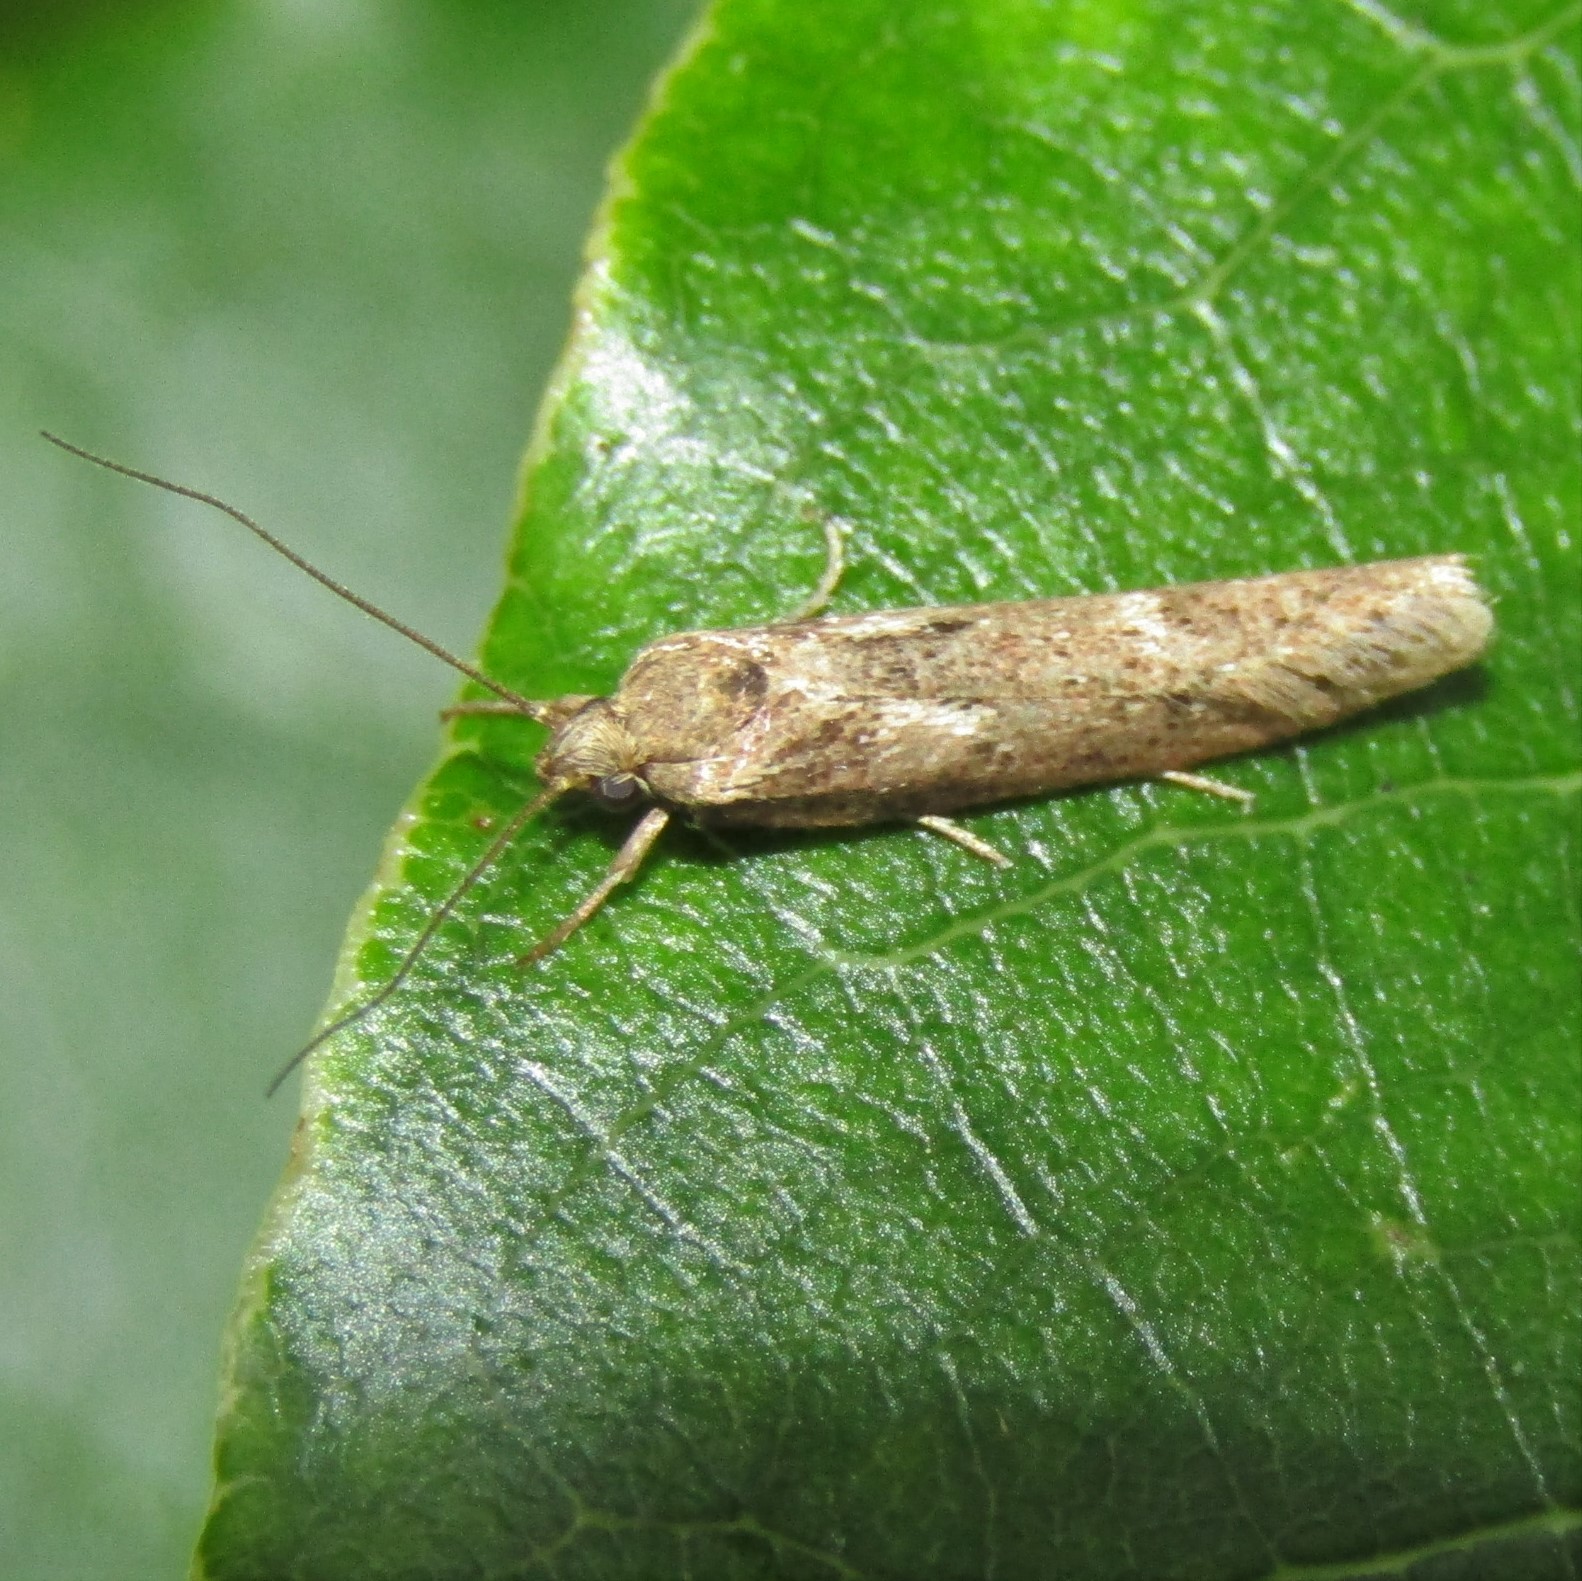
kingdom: Animalia
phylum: Arthropoda
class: Insecta
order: Lepidoptera
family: Oecophoridae
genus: Chersadaula
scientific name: Chersadaula ochrogastra
